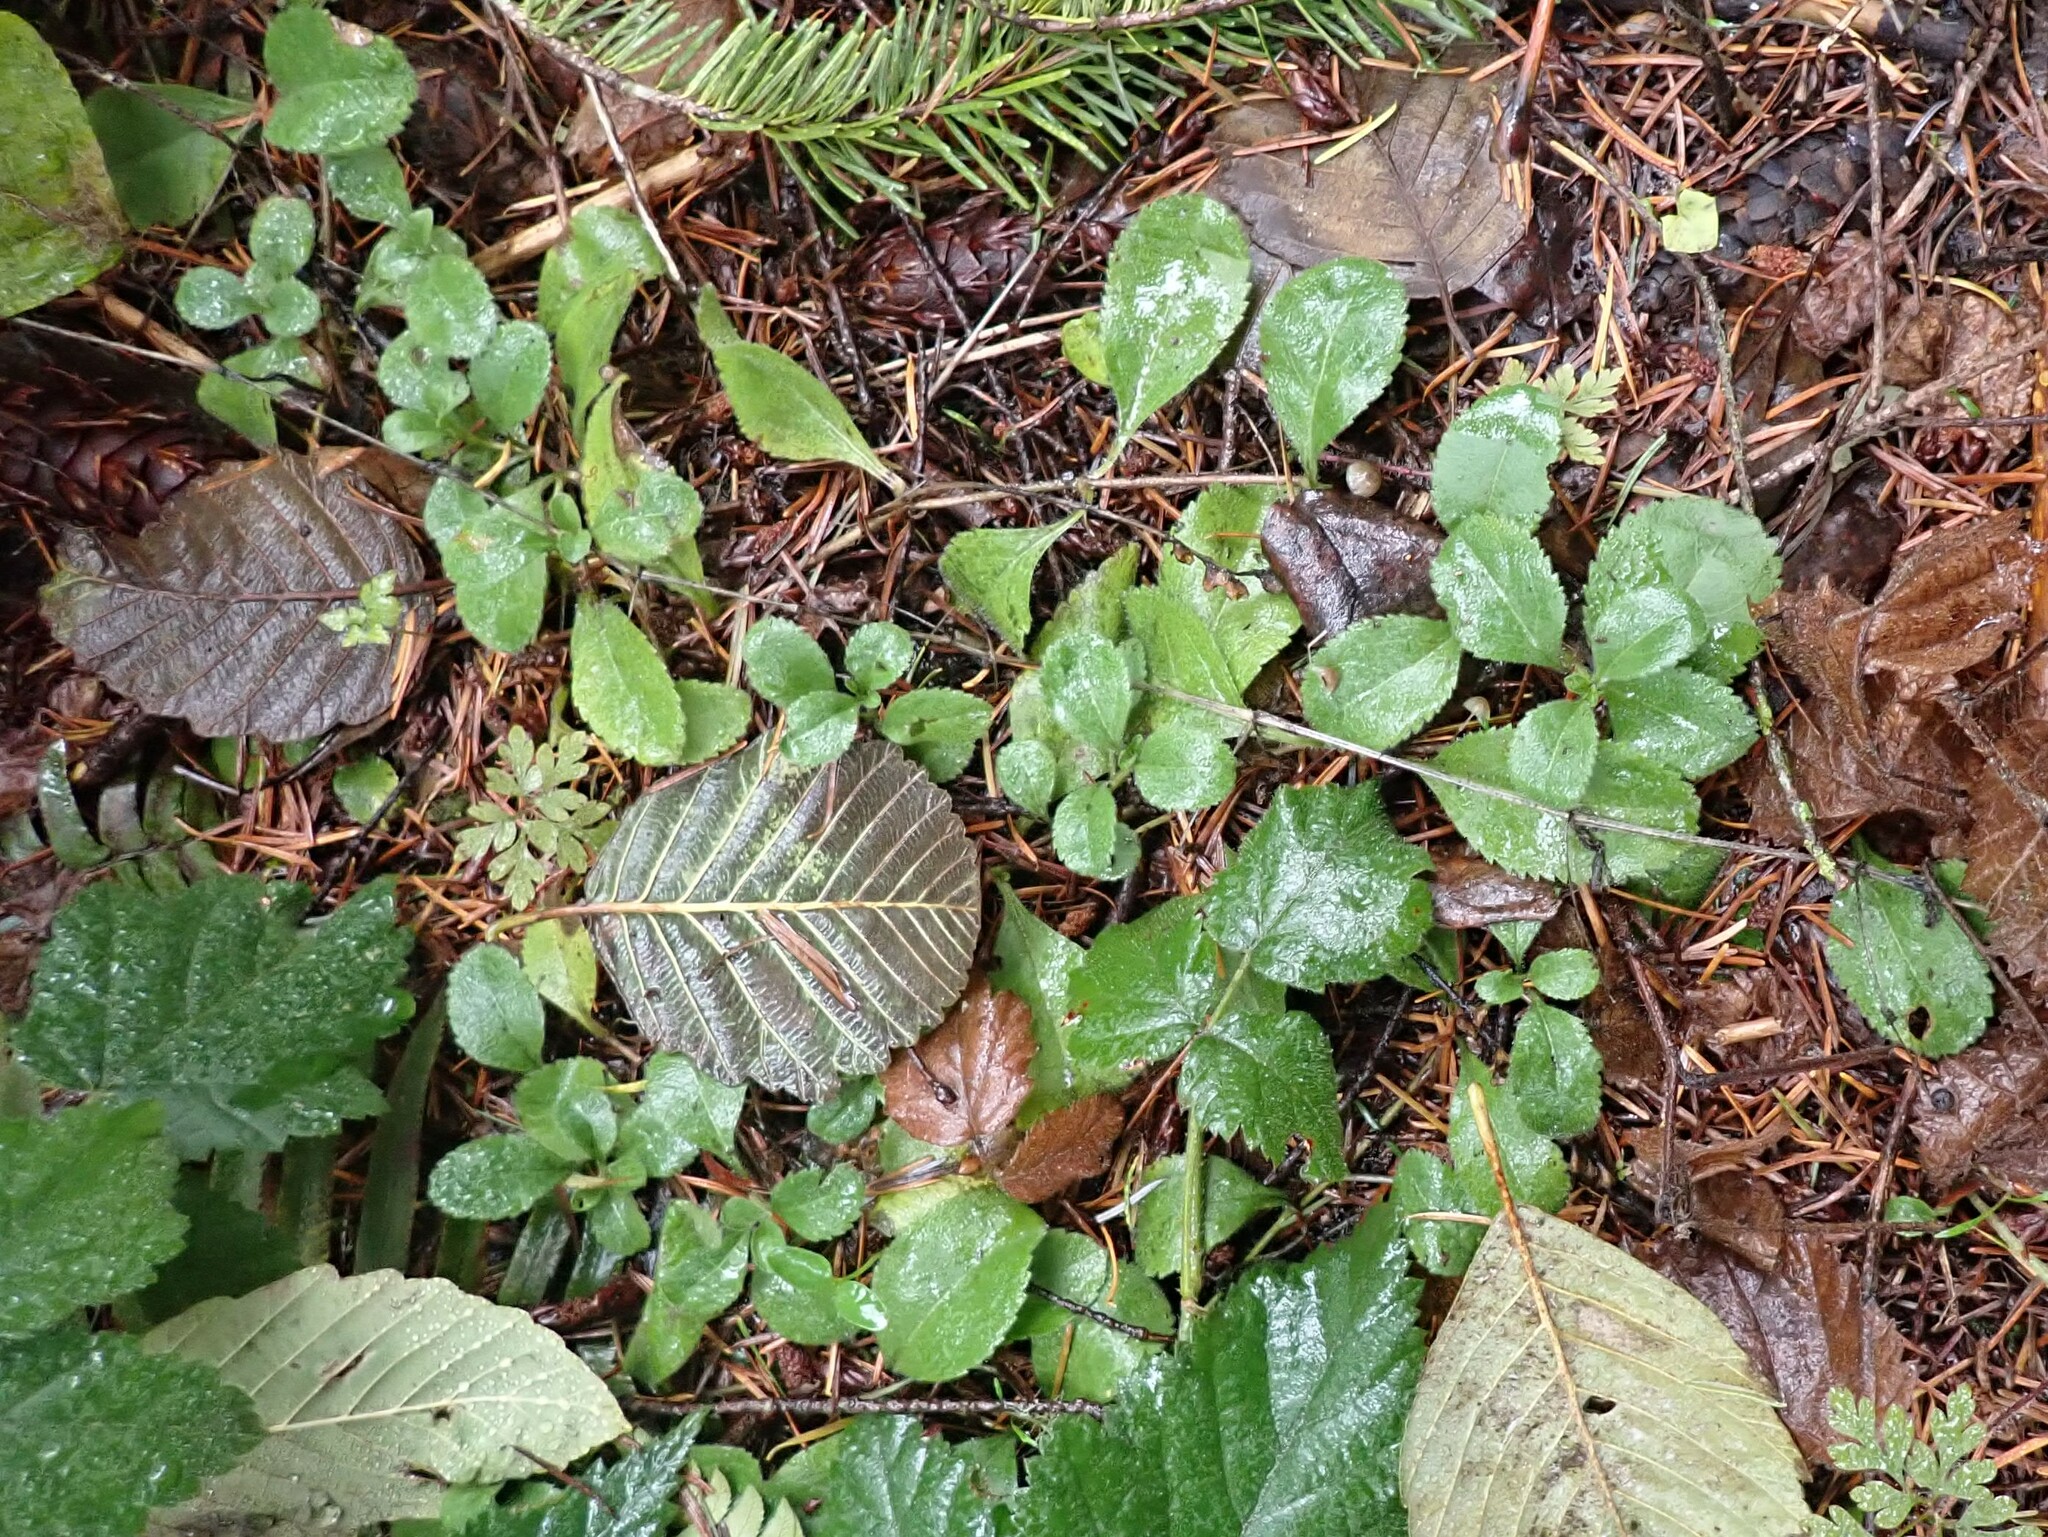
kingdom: Plantae
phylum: Tracheophyta
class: Magnoliopsida
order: Lamiales
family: Plantaginaceae
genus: Veronica
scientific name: Veronica officinalis
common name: Common speedwell
